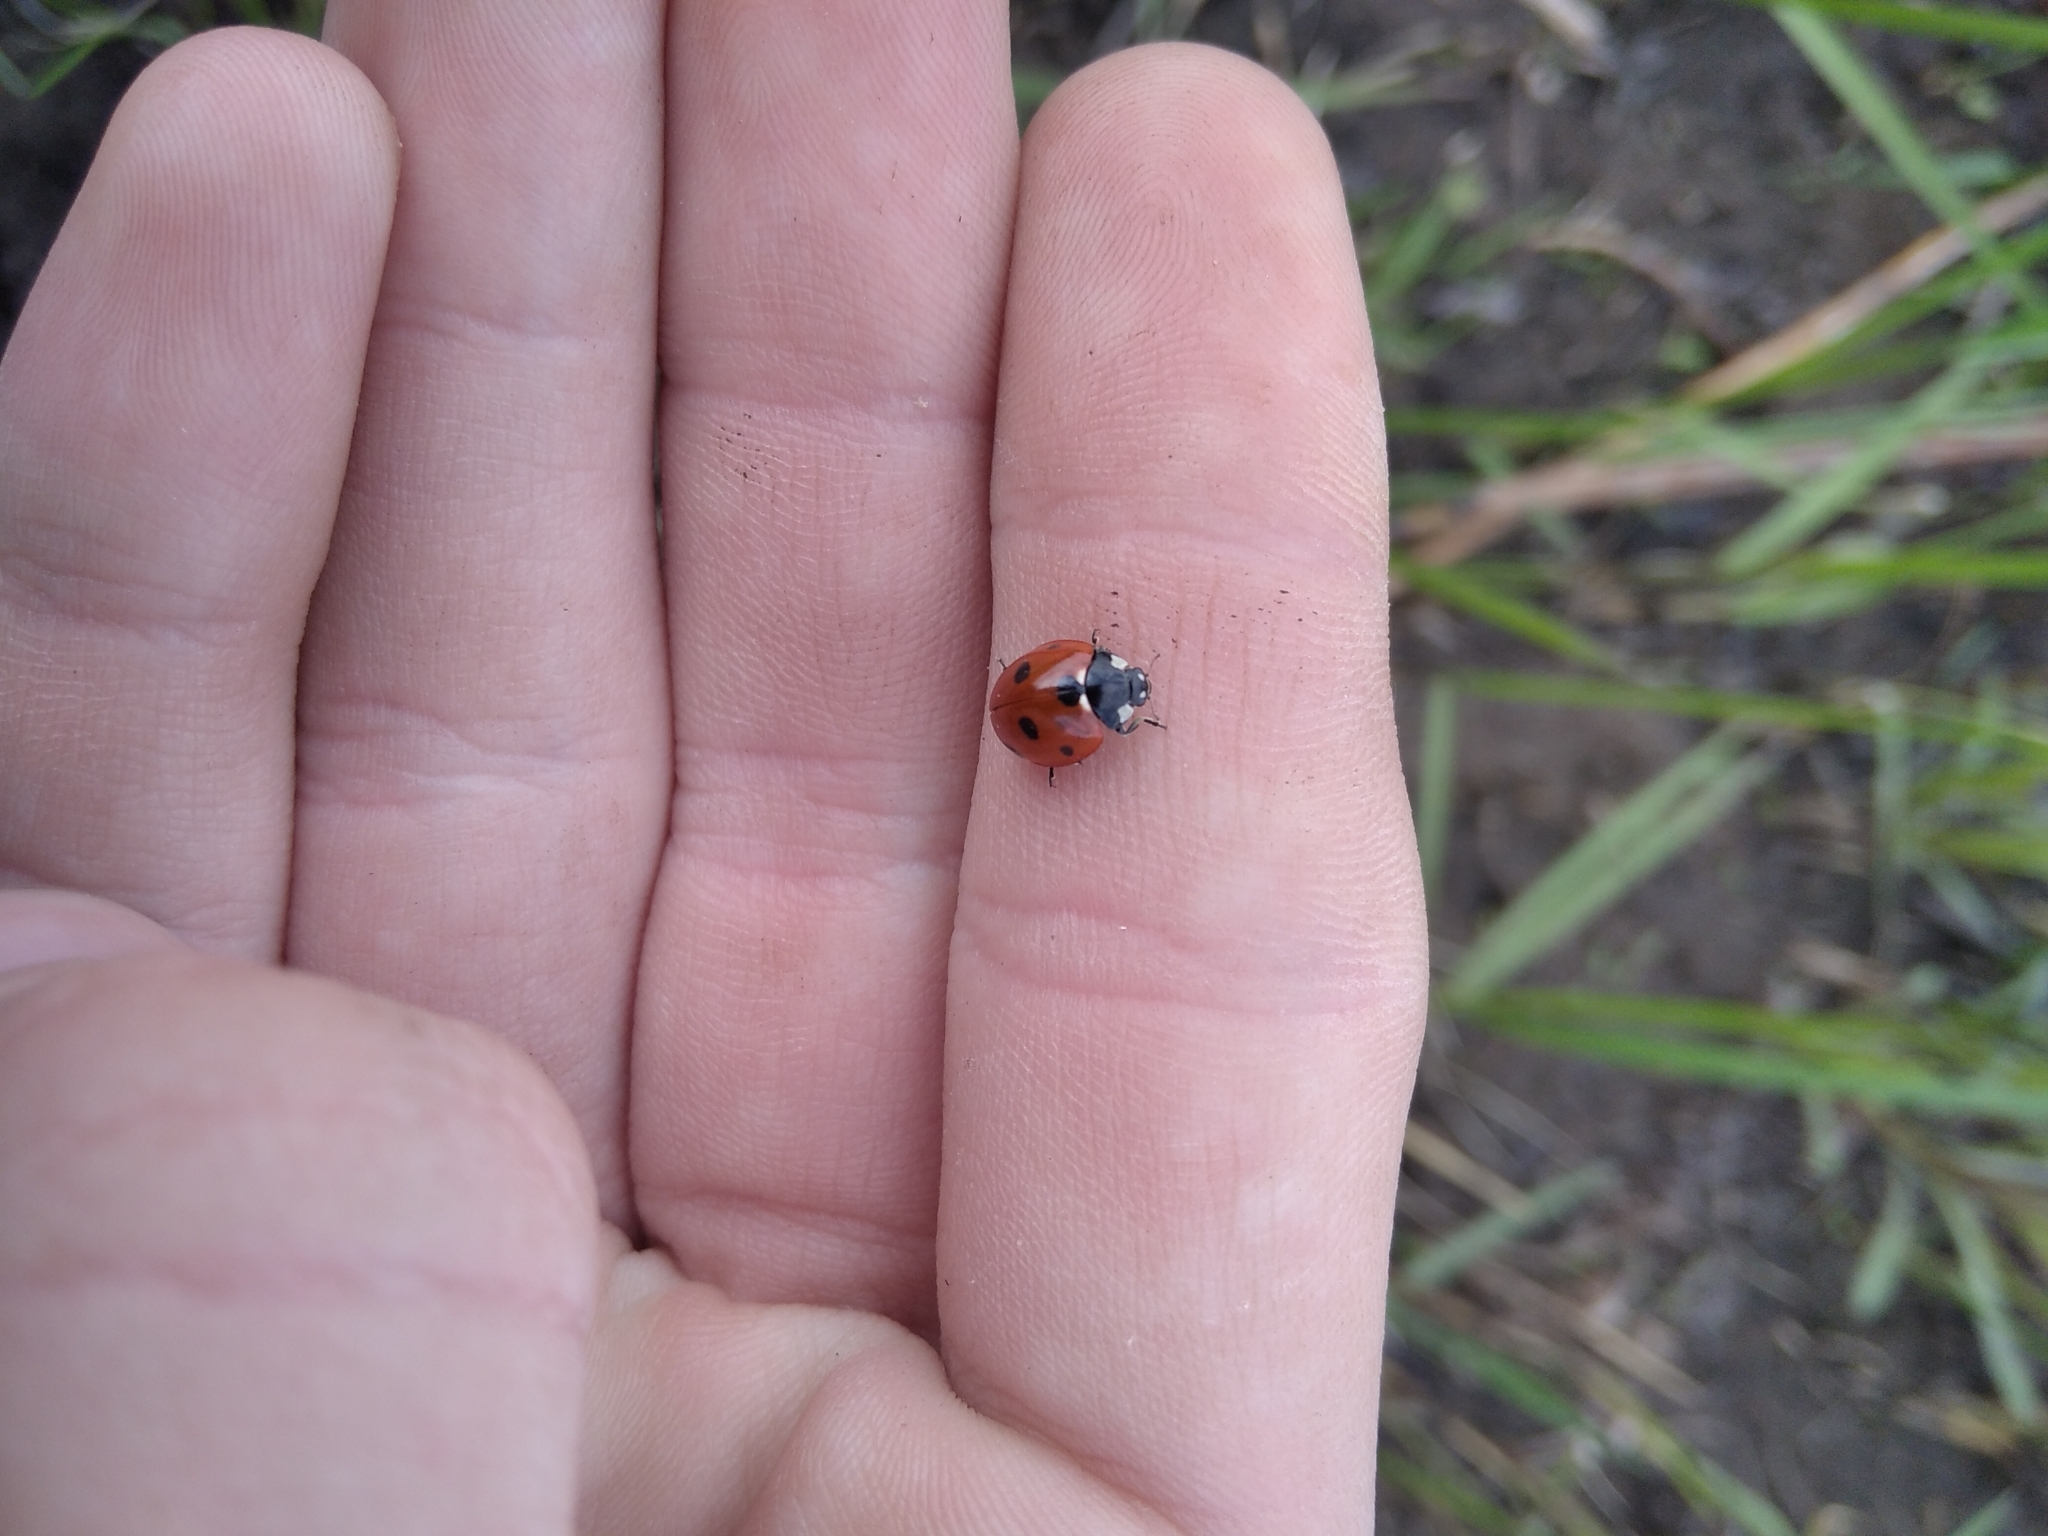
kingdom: Animalia
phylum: Arthropoda
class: Insecta
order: Coleoptera
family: Coccinellidae
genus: Coccinella
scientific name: Coccinella septempunctata
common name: Sevenspotted lady beetle
